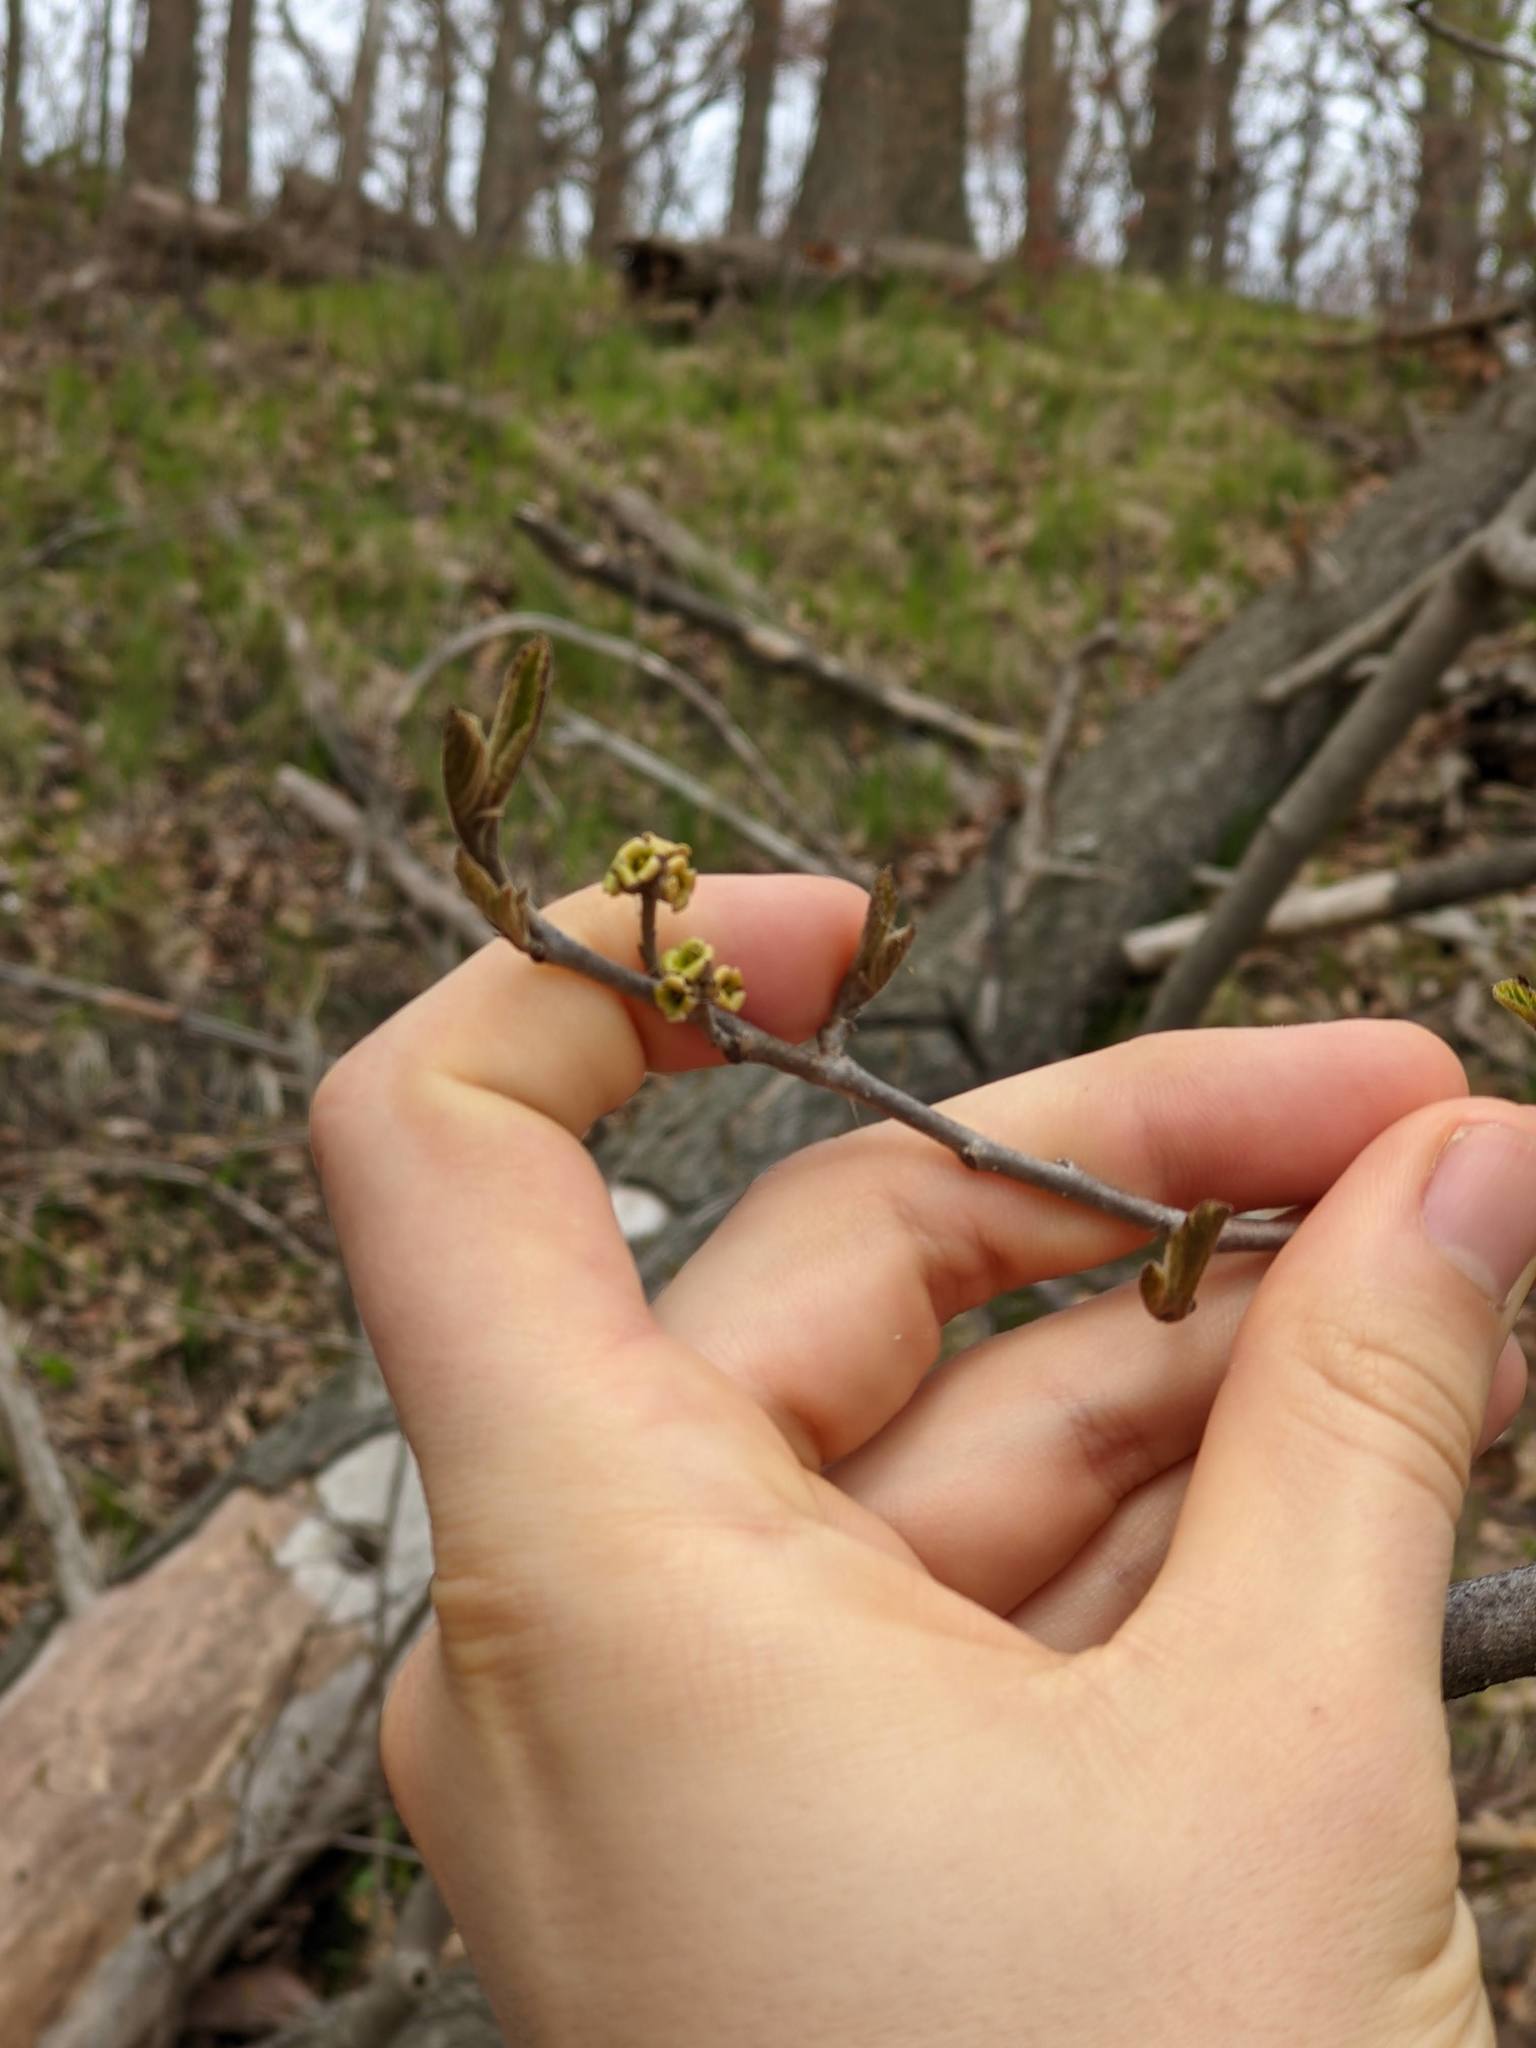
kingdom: Plantae
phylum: Tracheophyta
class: Magnoliopsida
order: Saxifragales
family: Hamamelidaceae
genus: Hamamelis
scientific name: Hamamelis virginiana
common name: Witch-hazel
